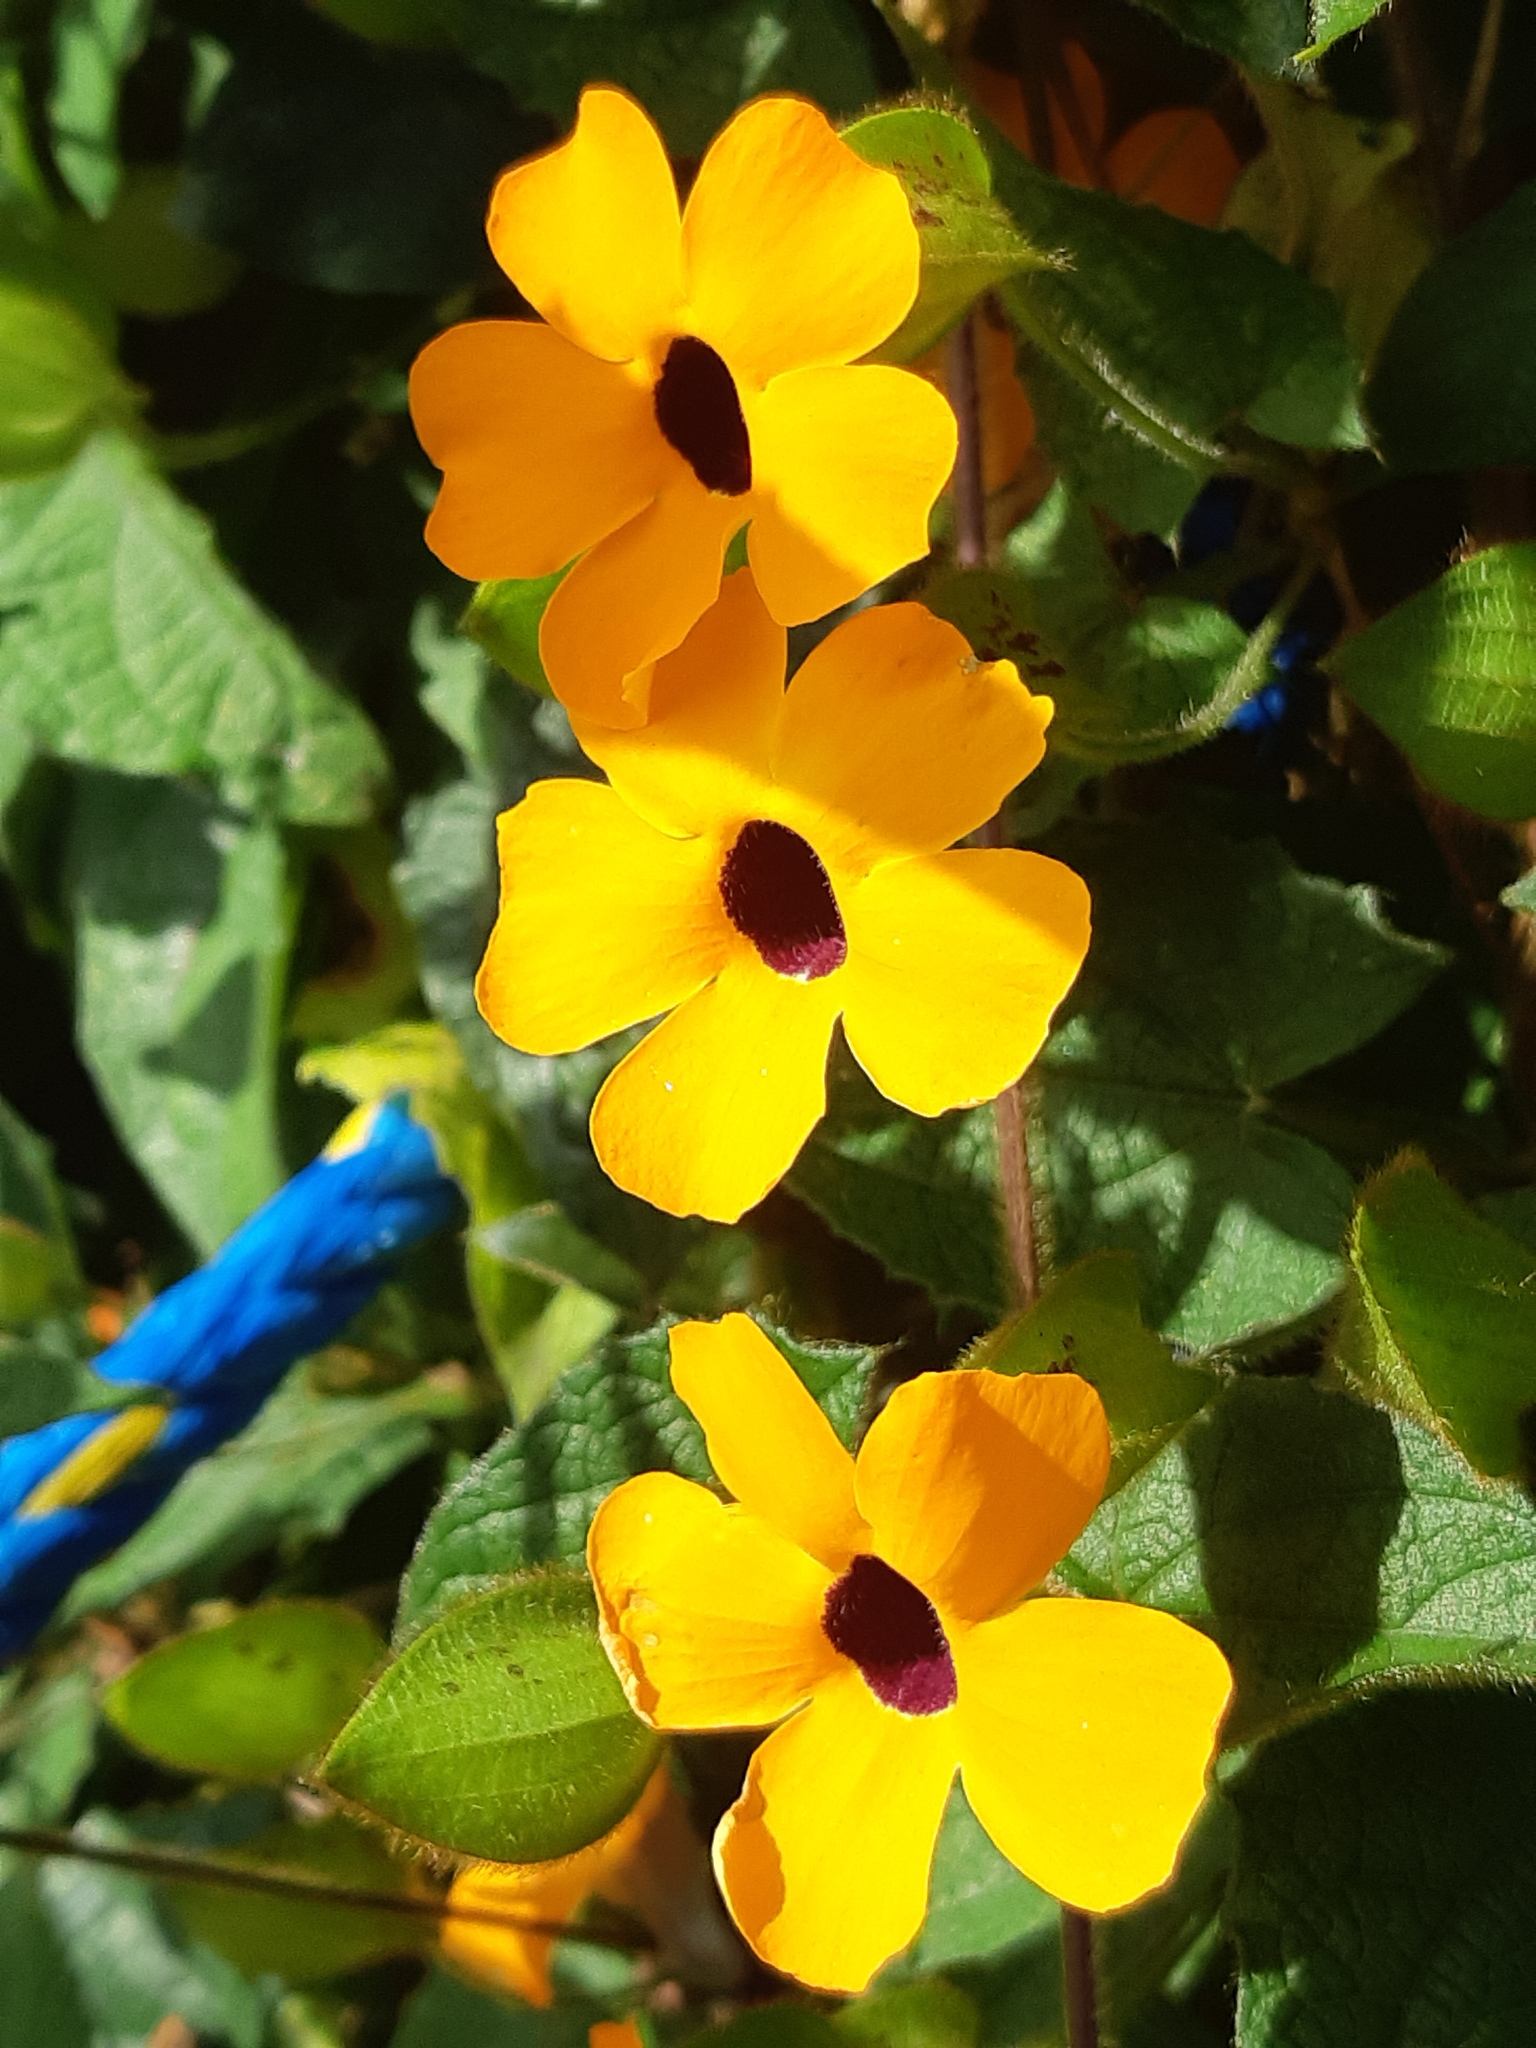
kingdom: Plantae
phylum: Tracheophyta
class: Magnoliopsida
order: Lamiales
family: Acanthaceae
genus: Thunbergia
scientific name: Thunbergia alata
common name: Blackeyed susan vine
